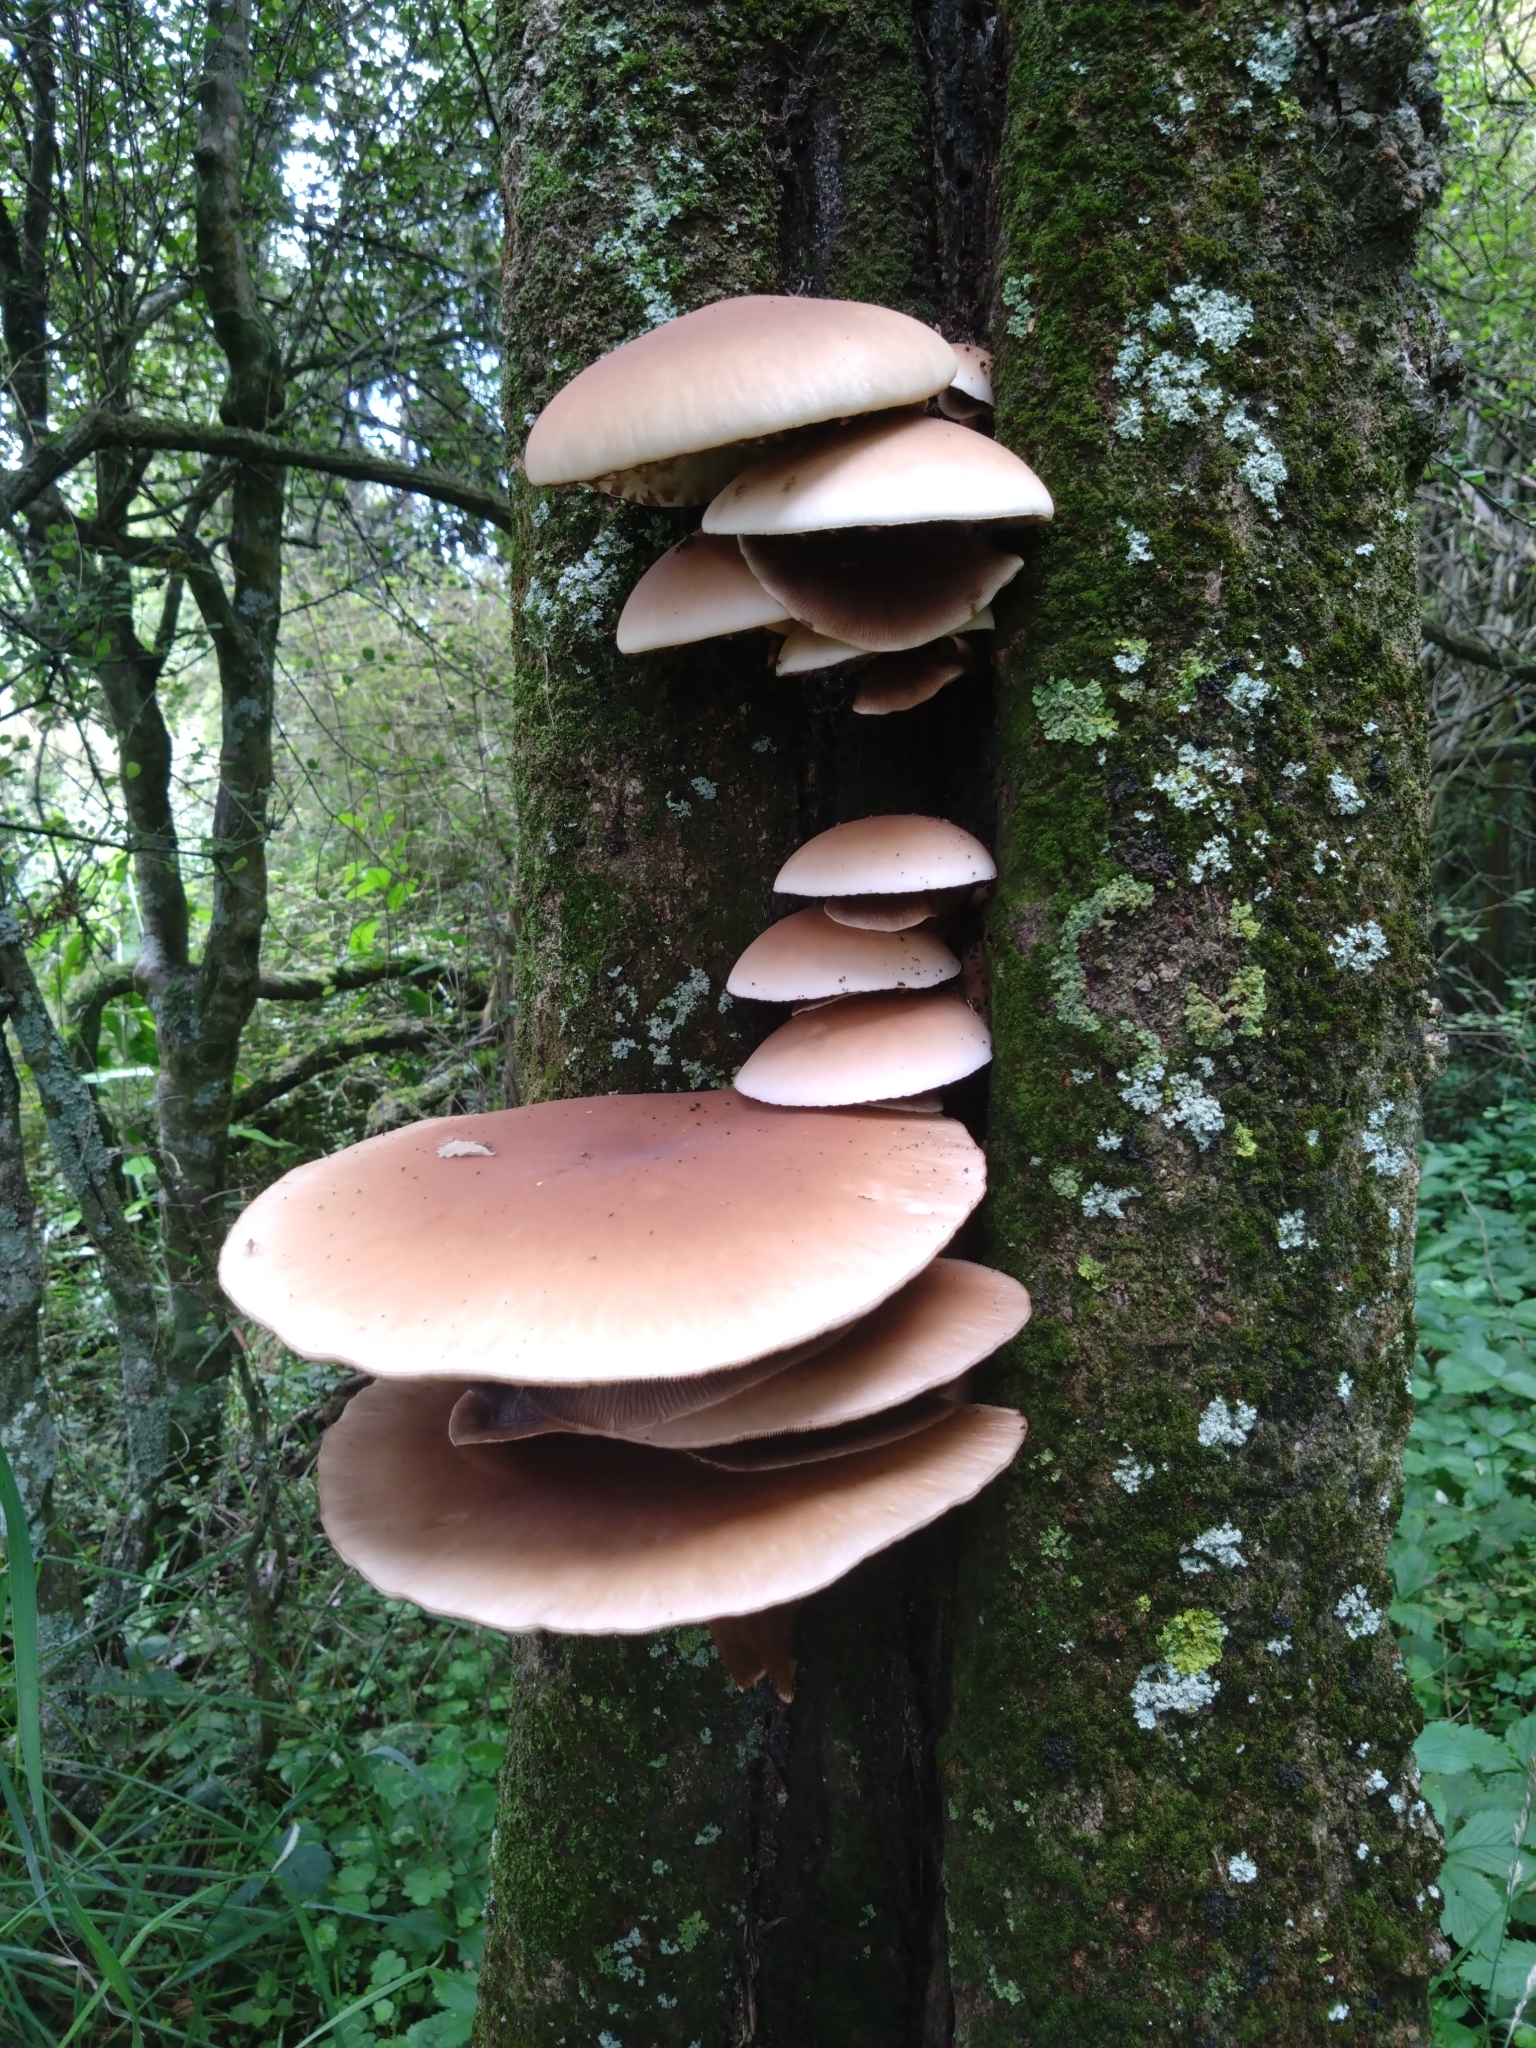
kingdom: Fungi
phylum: Basidiomycota
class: Agaricomycetes
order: Agaricales
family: Tubariaceae
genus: Cyclocybe
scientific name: Cyclocybe parasitica
